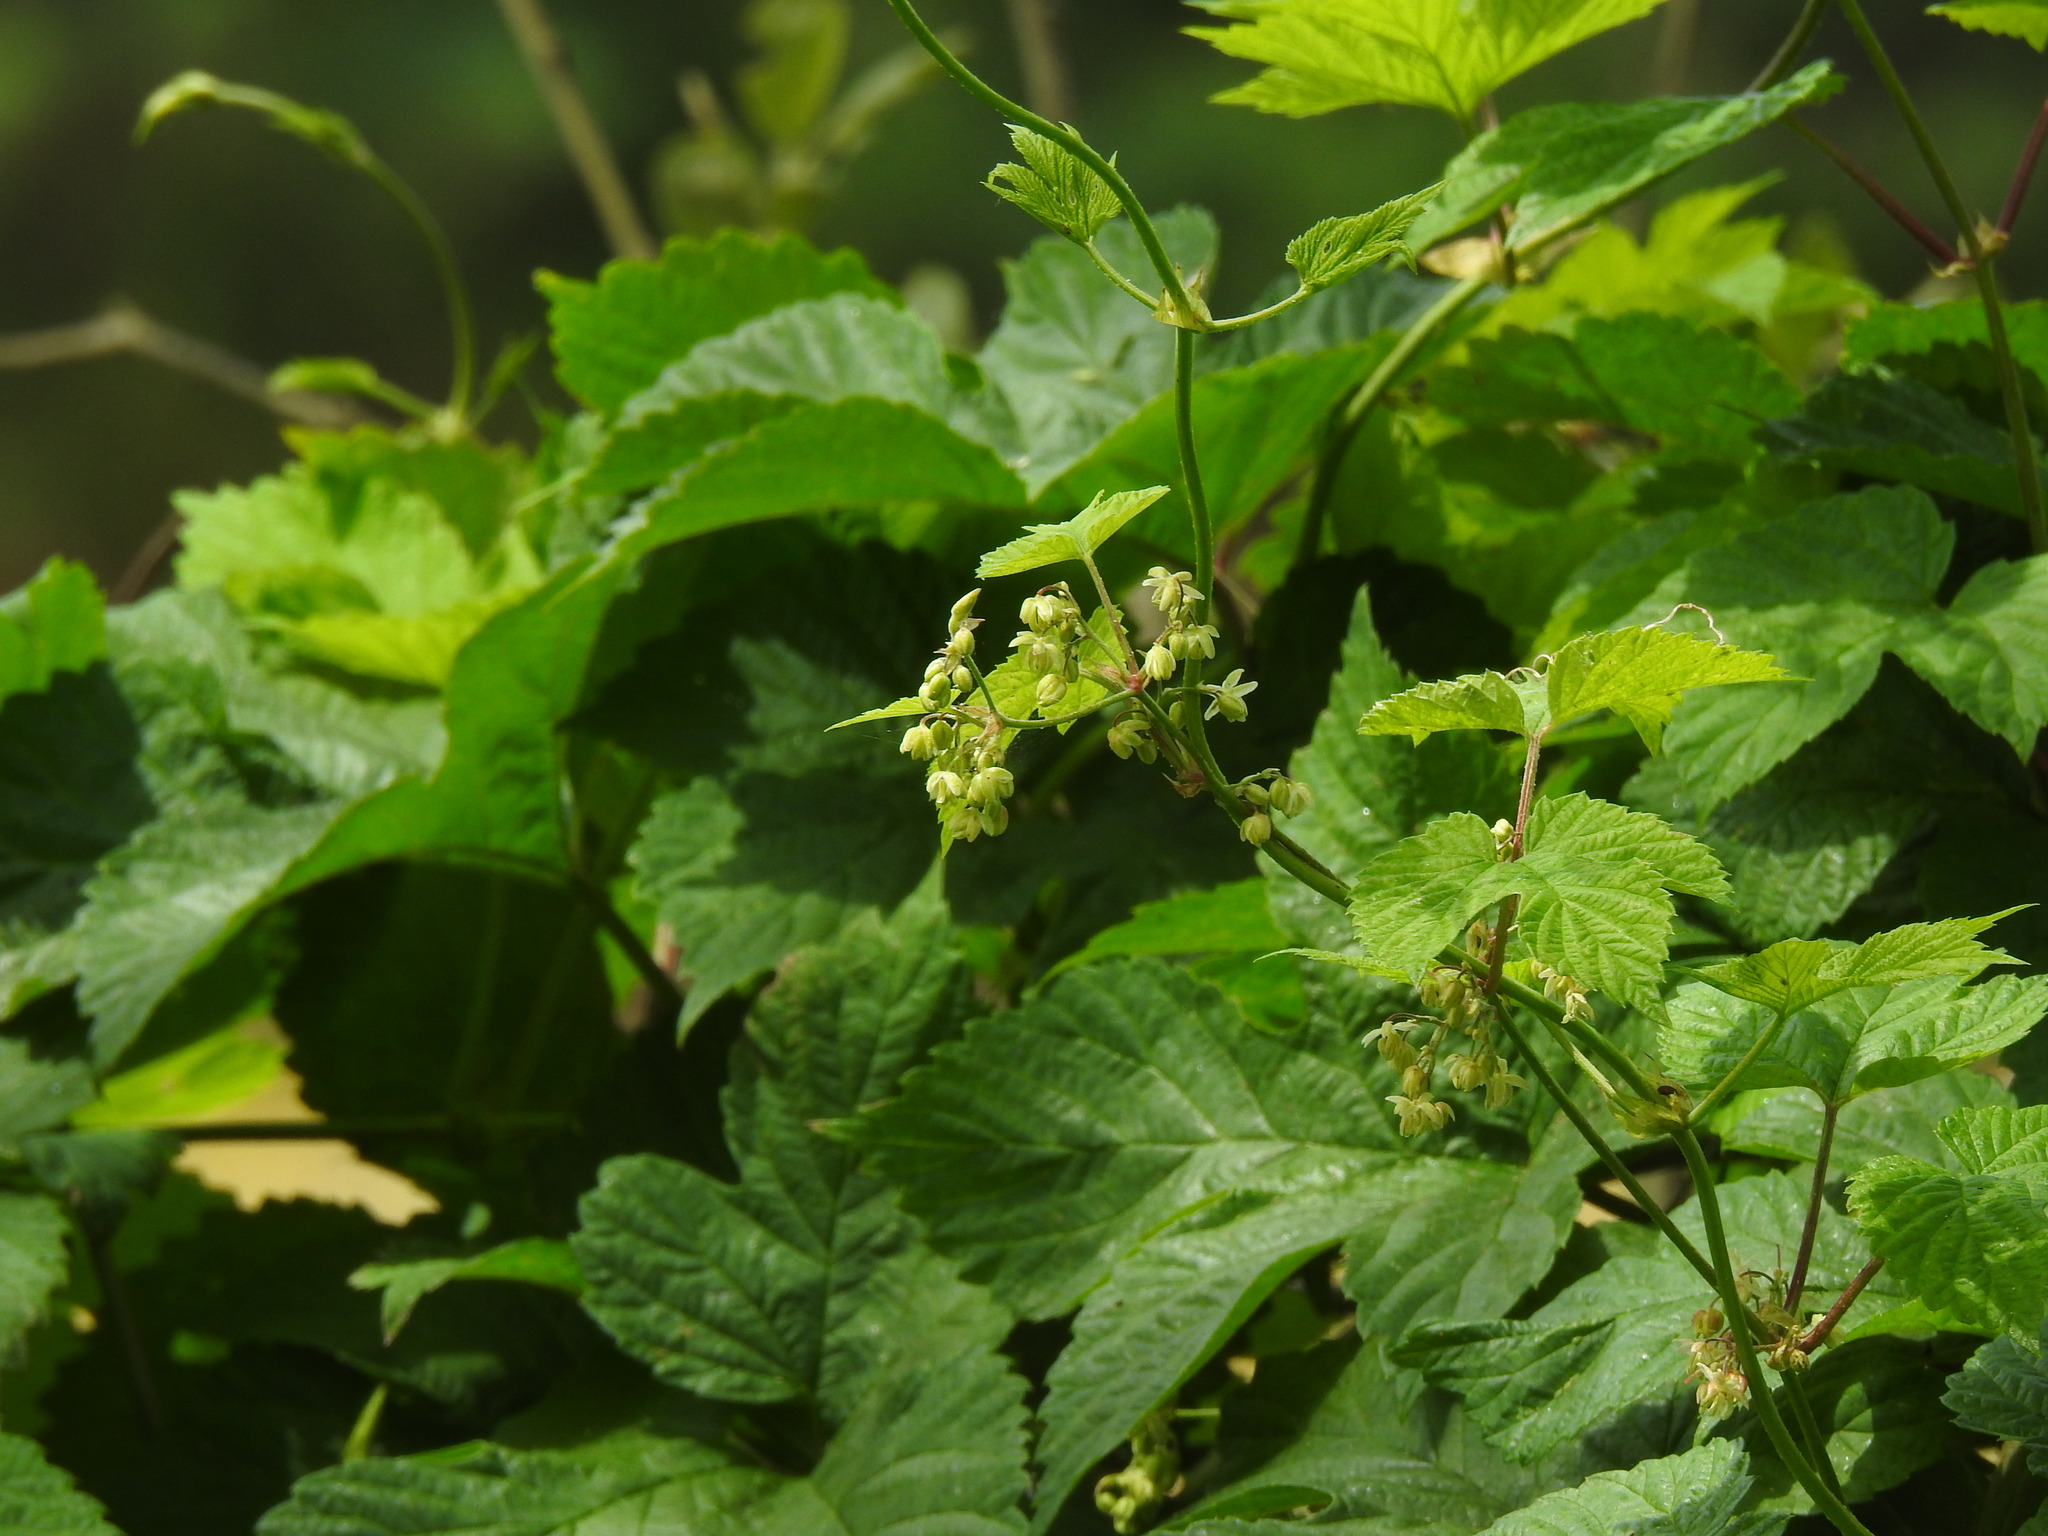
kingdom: Plantae
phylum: Tracheophyta
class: Magnoliopsida
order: Rosales
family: Cannabaceae
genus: Humulus
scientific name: Humulus lupulus
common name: Hop
